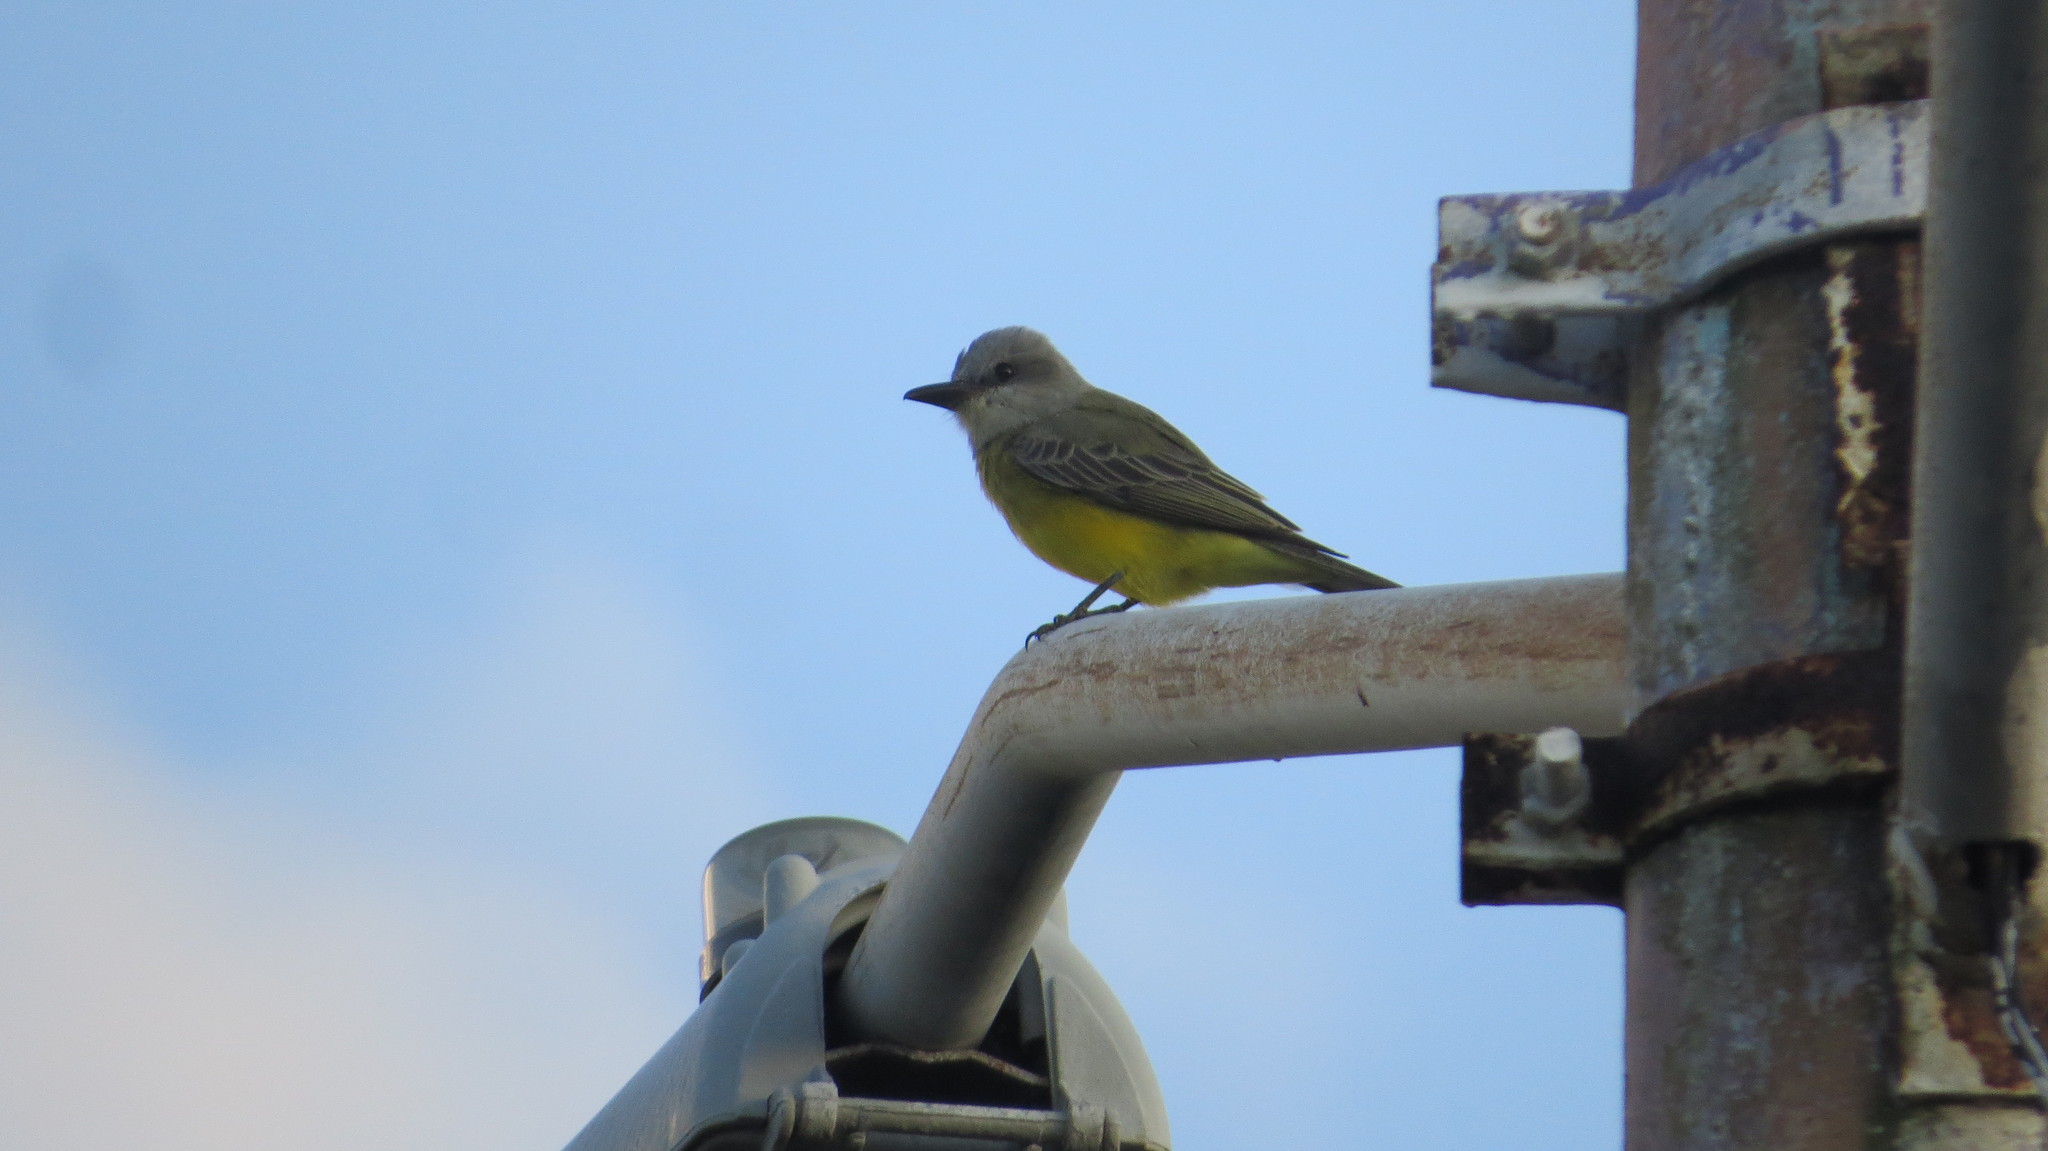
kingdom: Animalia
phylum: Chordata
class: Aves
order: Passeriformes
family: Tyrannidae
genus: Tyrannus
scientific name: Tyrannus melancholicus
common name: Tropical kingbird
